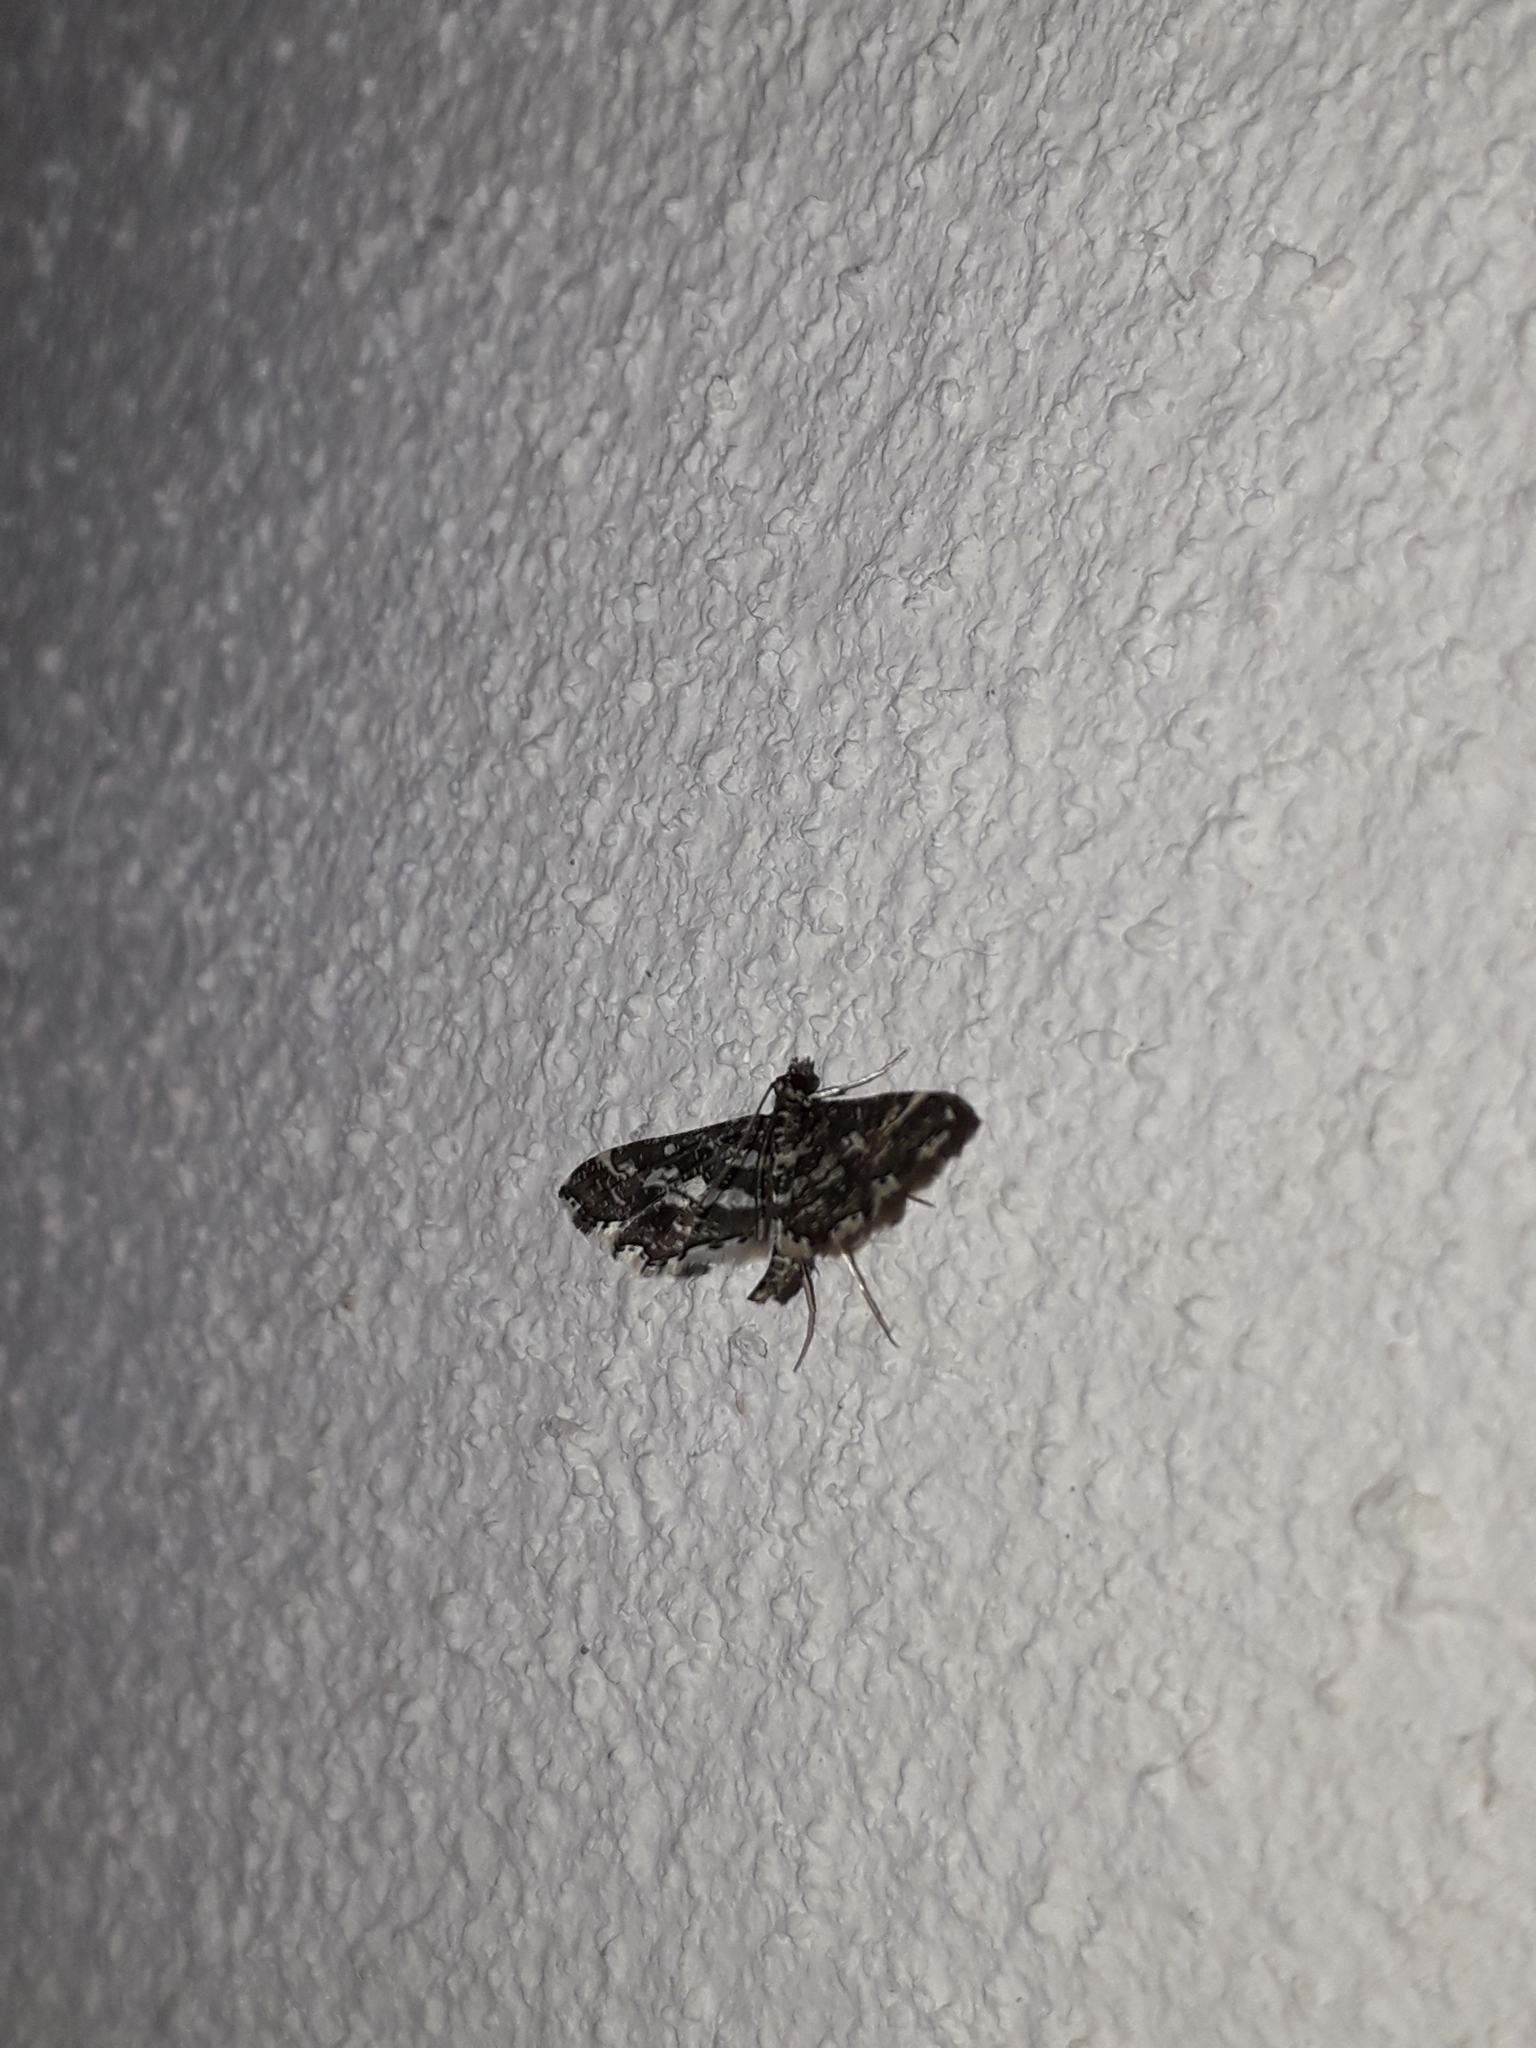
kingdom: Animalia
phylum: Arthropoda
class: Insecta
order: Lepidoptera
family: Crambidae
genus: Diasemiopsis
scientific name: Diasemiopsis ramburialis
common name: Vagrant china-mark
